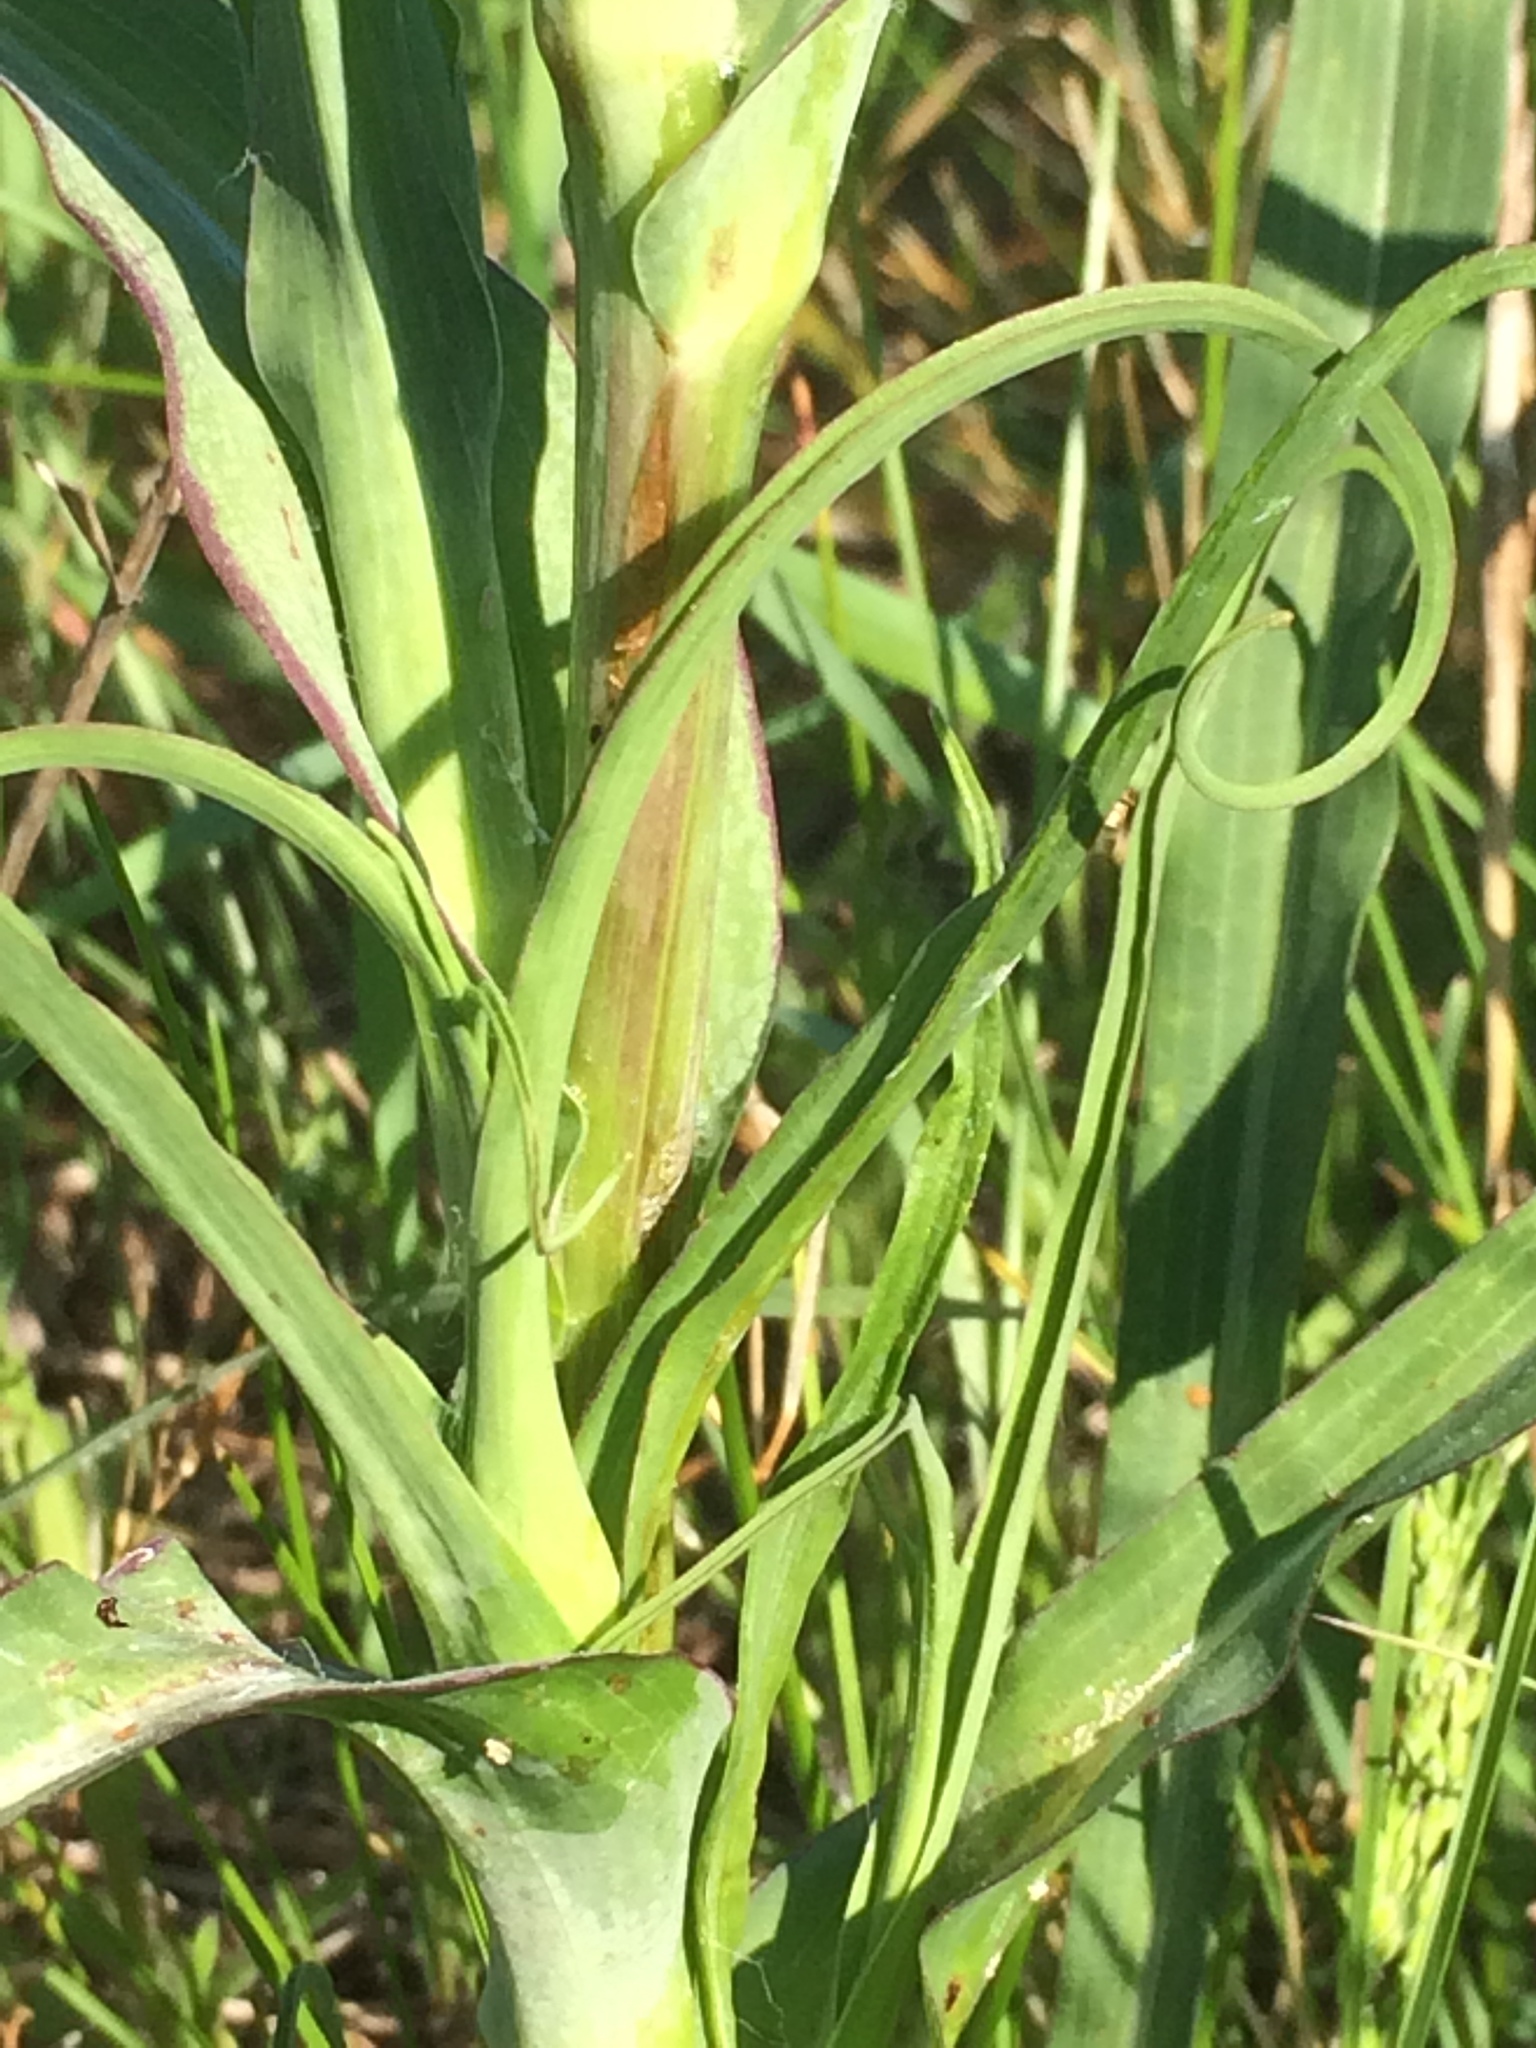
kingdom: Plantae
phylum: Tracheophyta
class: Magnoliopsida
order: Asterales
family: Asteraceae
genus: Tragopogon
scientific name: Tragopogon dubius
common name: Yellow salsify
